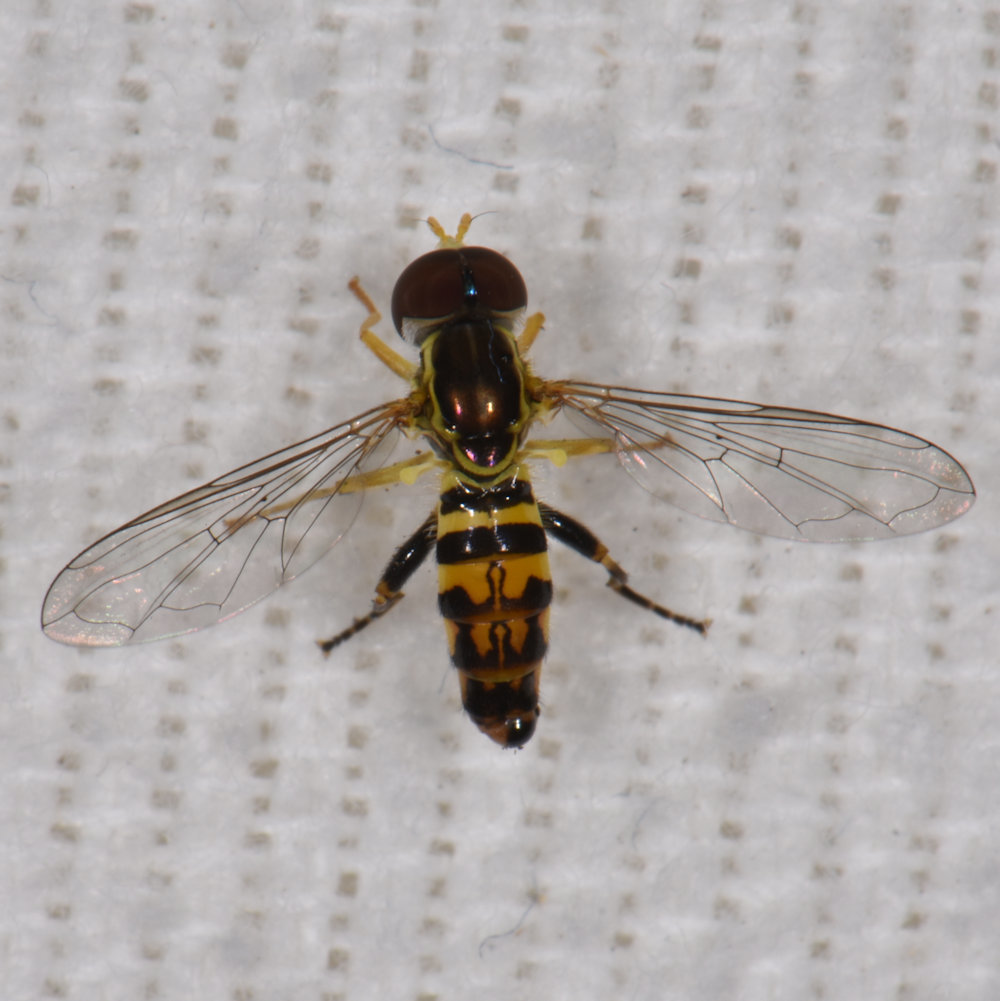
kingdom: Animalia
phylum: Arthropoda
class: Insecta
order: Diptera
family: Syrphidae
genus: Toxomerus
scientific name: Toxomerus geminatus
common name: Eastern calligrapher
